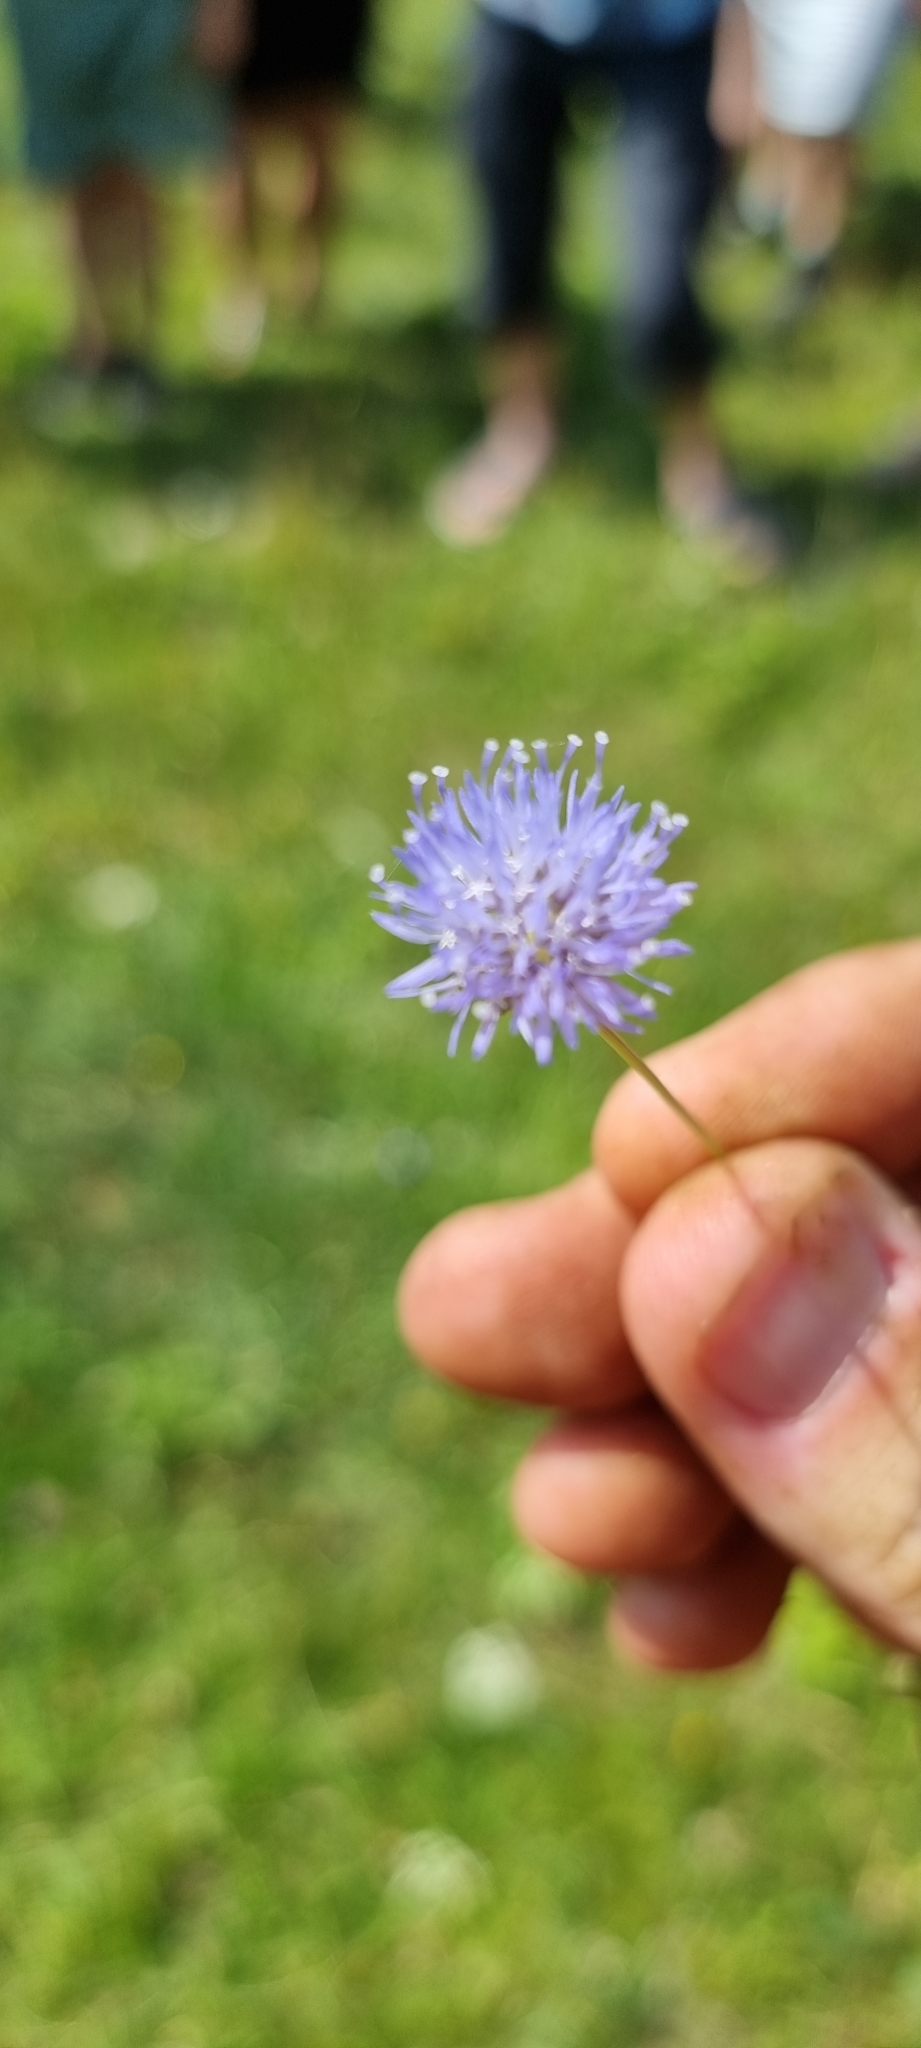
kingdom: Plantae
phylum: Tracheophyta
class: Magnoliopsida
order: Asterales
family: Campanulaceae
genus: Jasione
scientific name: Jasione montana
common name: Sheep's-bit
